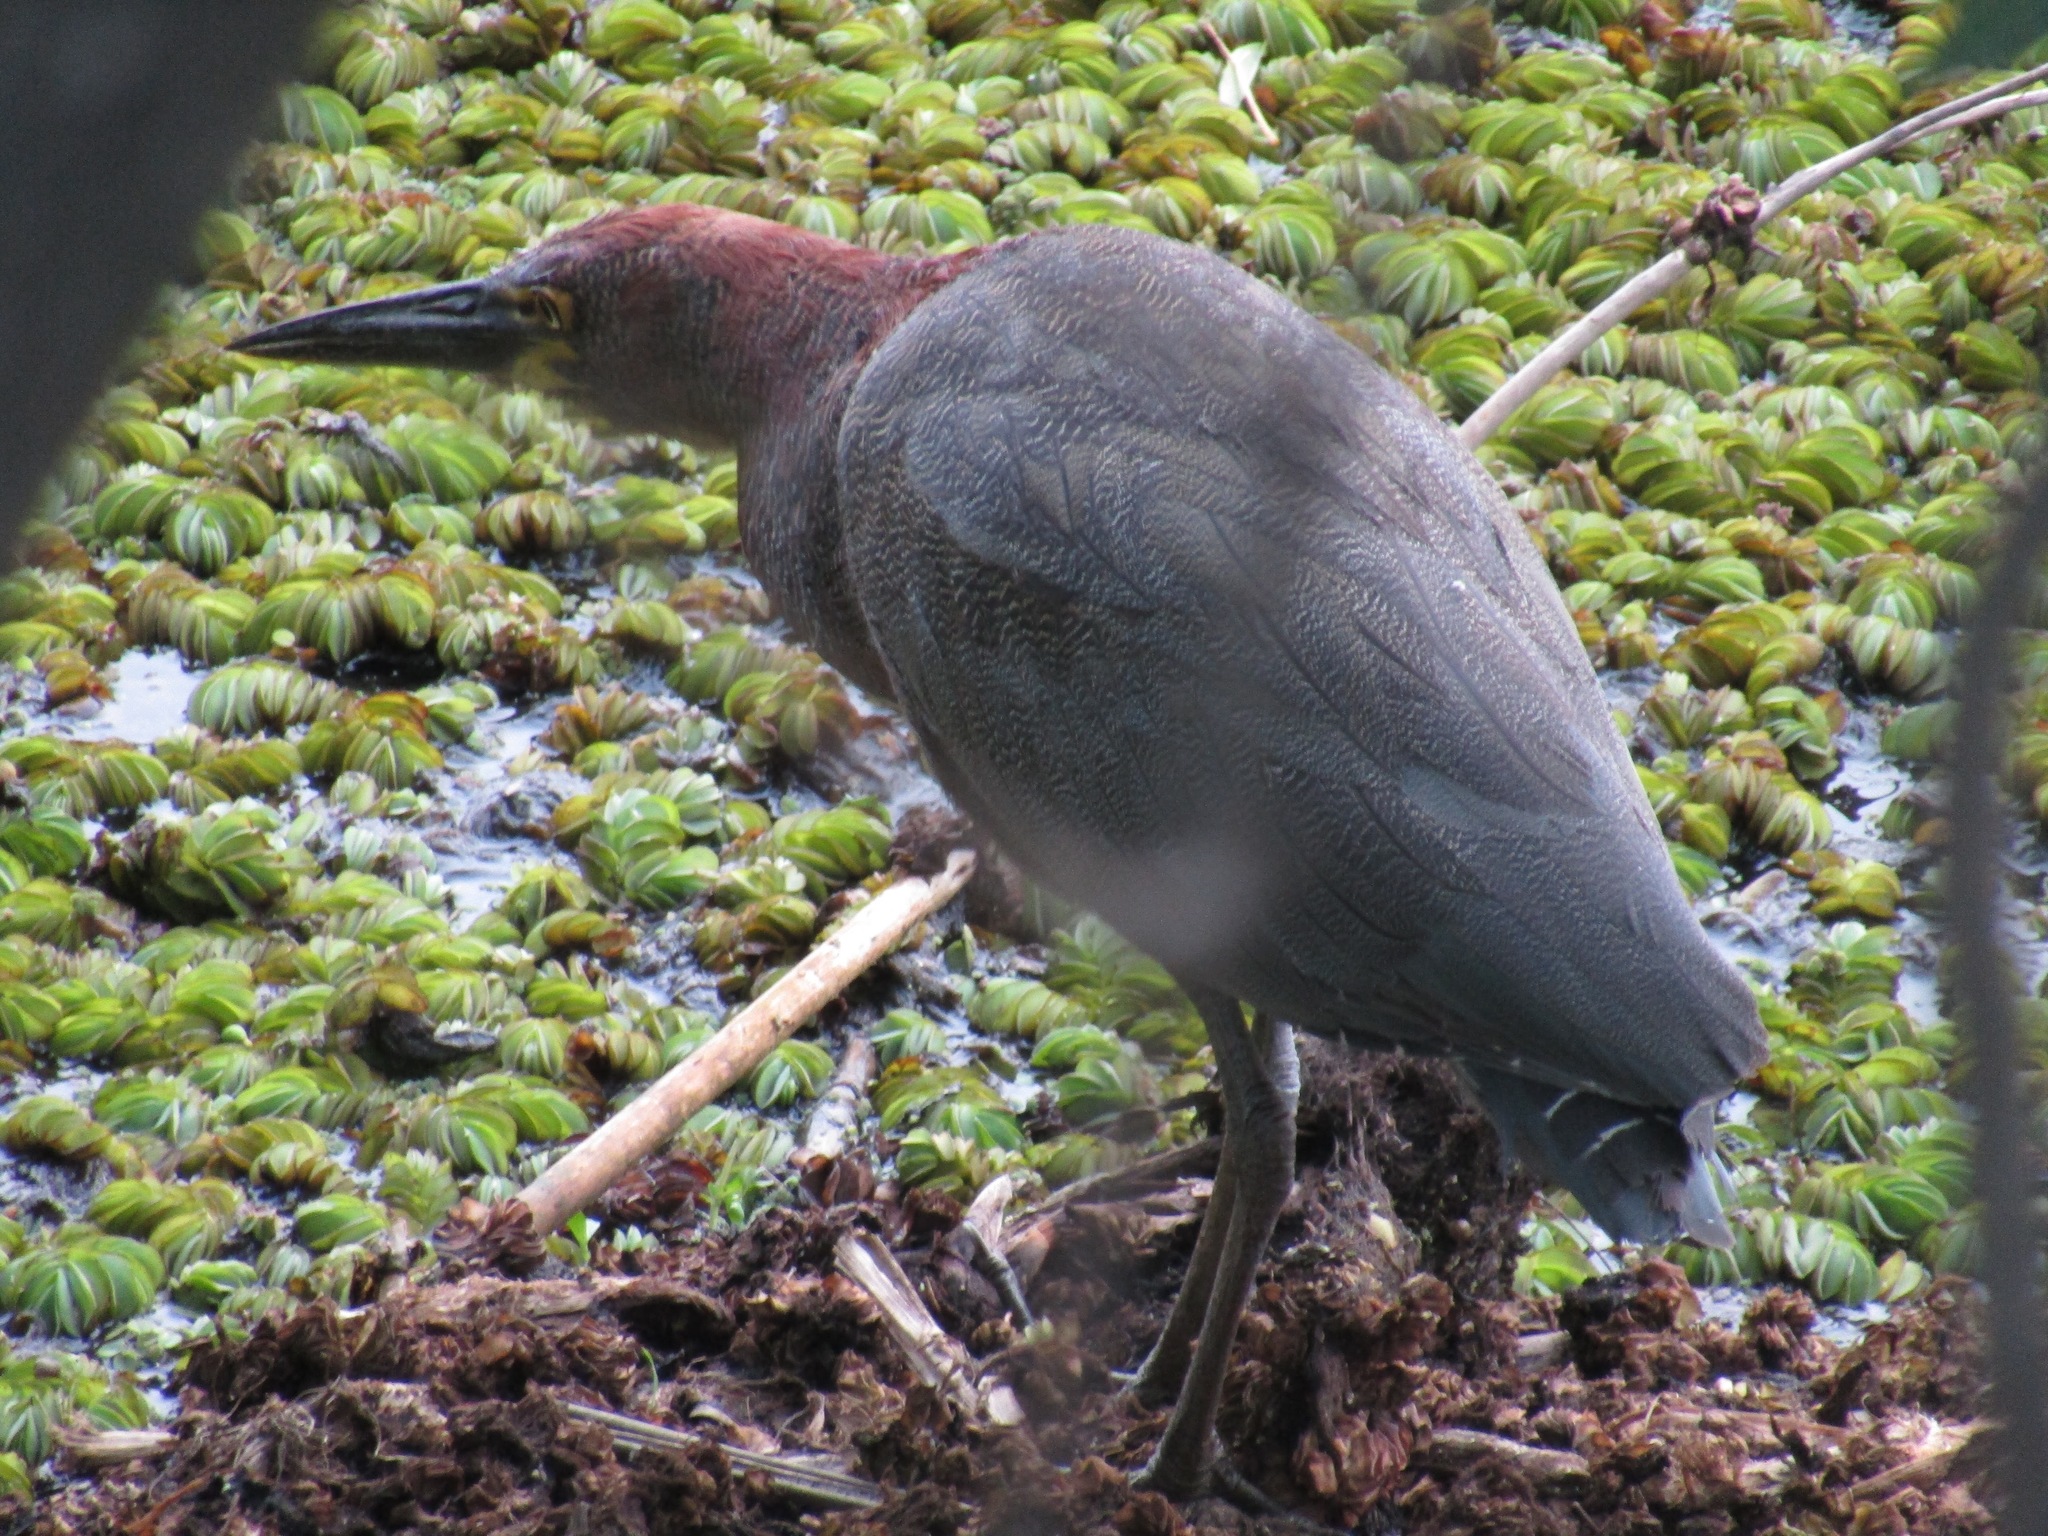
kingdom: Animalia
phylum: Chordata
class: Aves
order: Pelecaniformes
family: Ardeidae
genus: Tigrisoma
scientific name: Tigrisoma lineatum
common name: Rufescent tiger-heron
